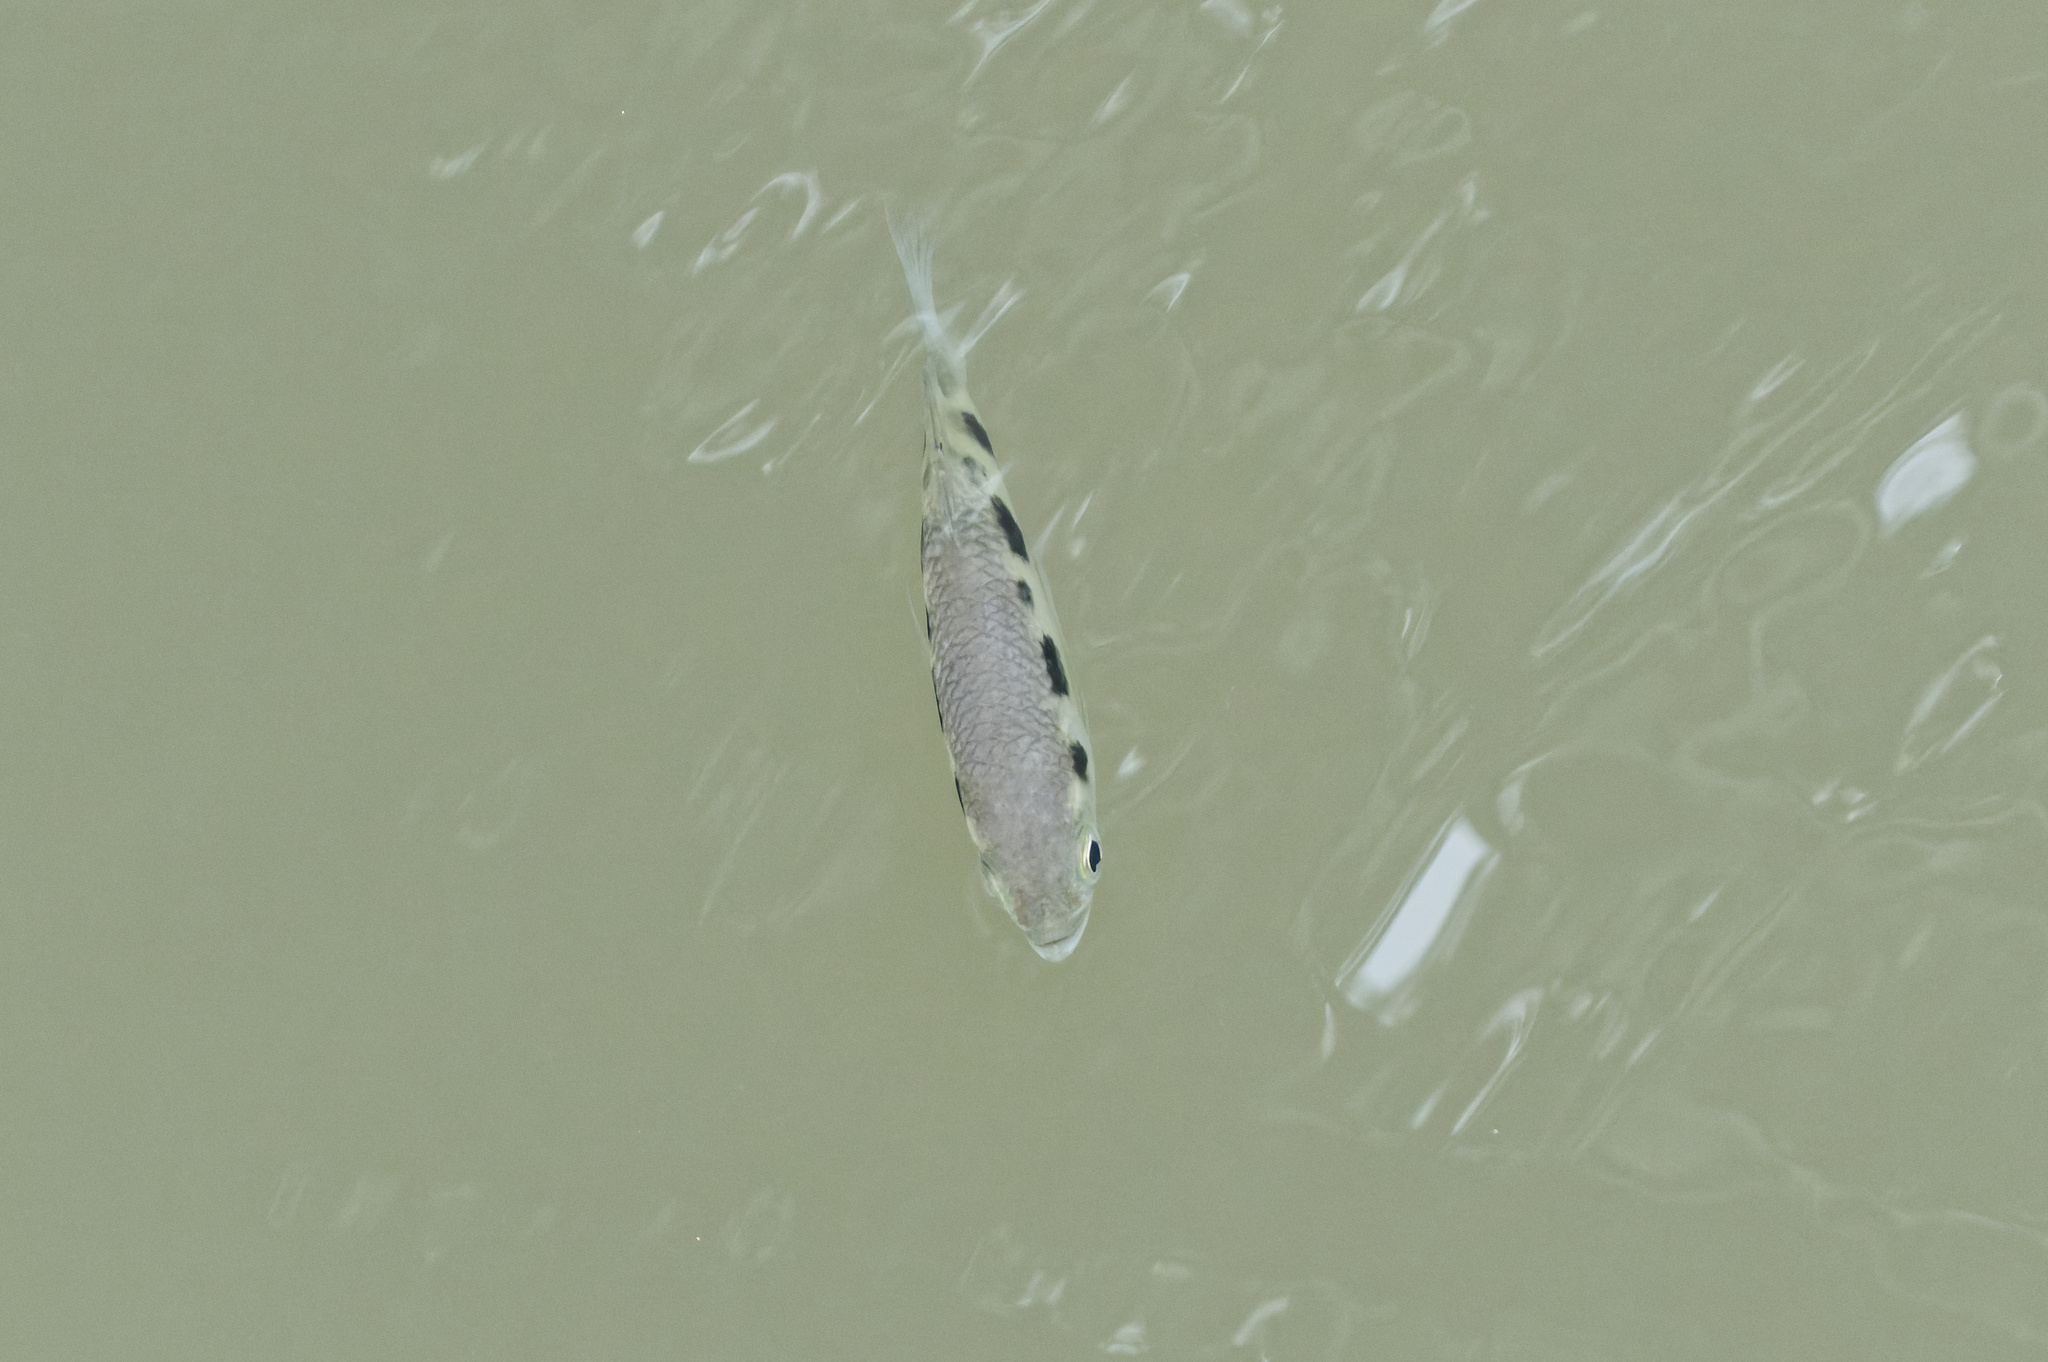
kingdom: Animalia
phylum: Chordata
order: Perciformes
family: Toxotidae
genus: Toxotes
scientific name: Toxotes chatareus
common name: Spotted archerfish
